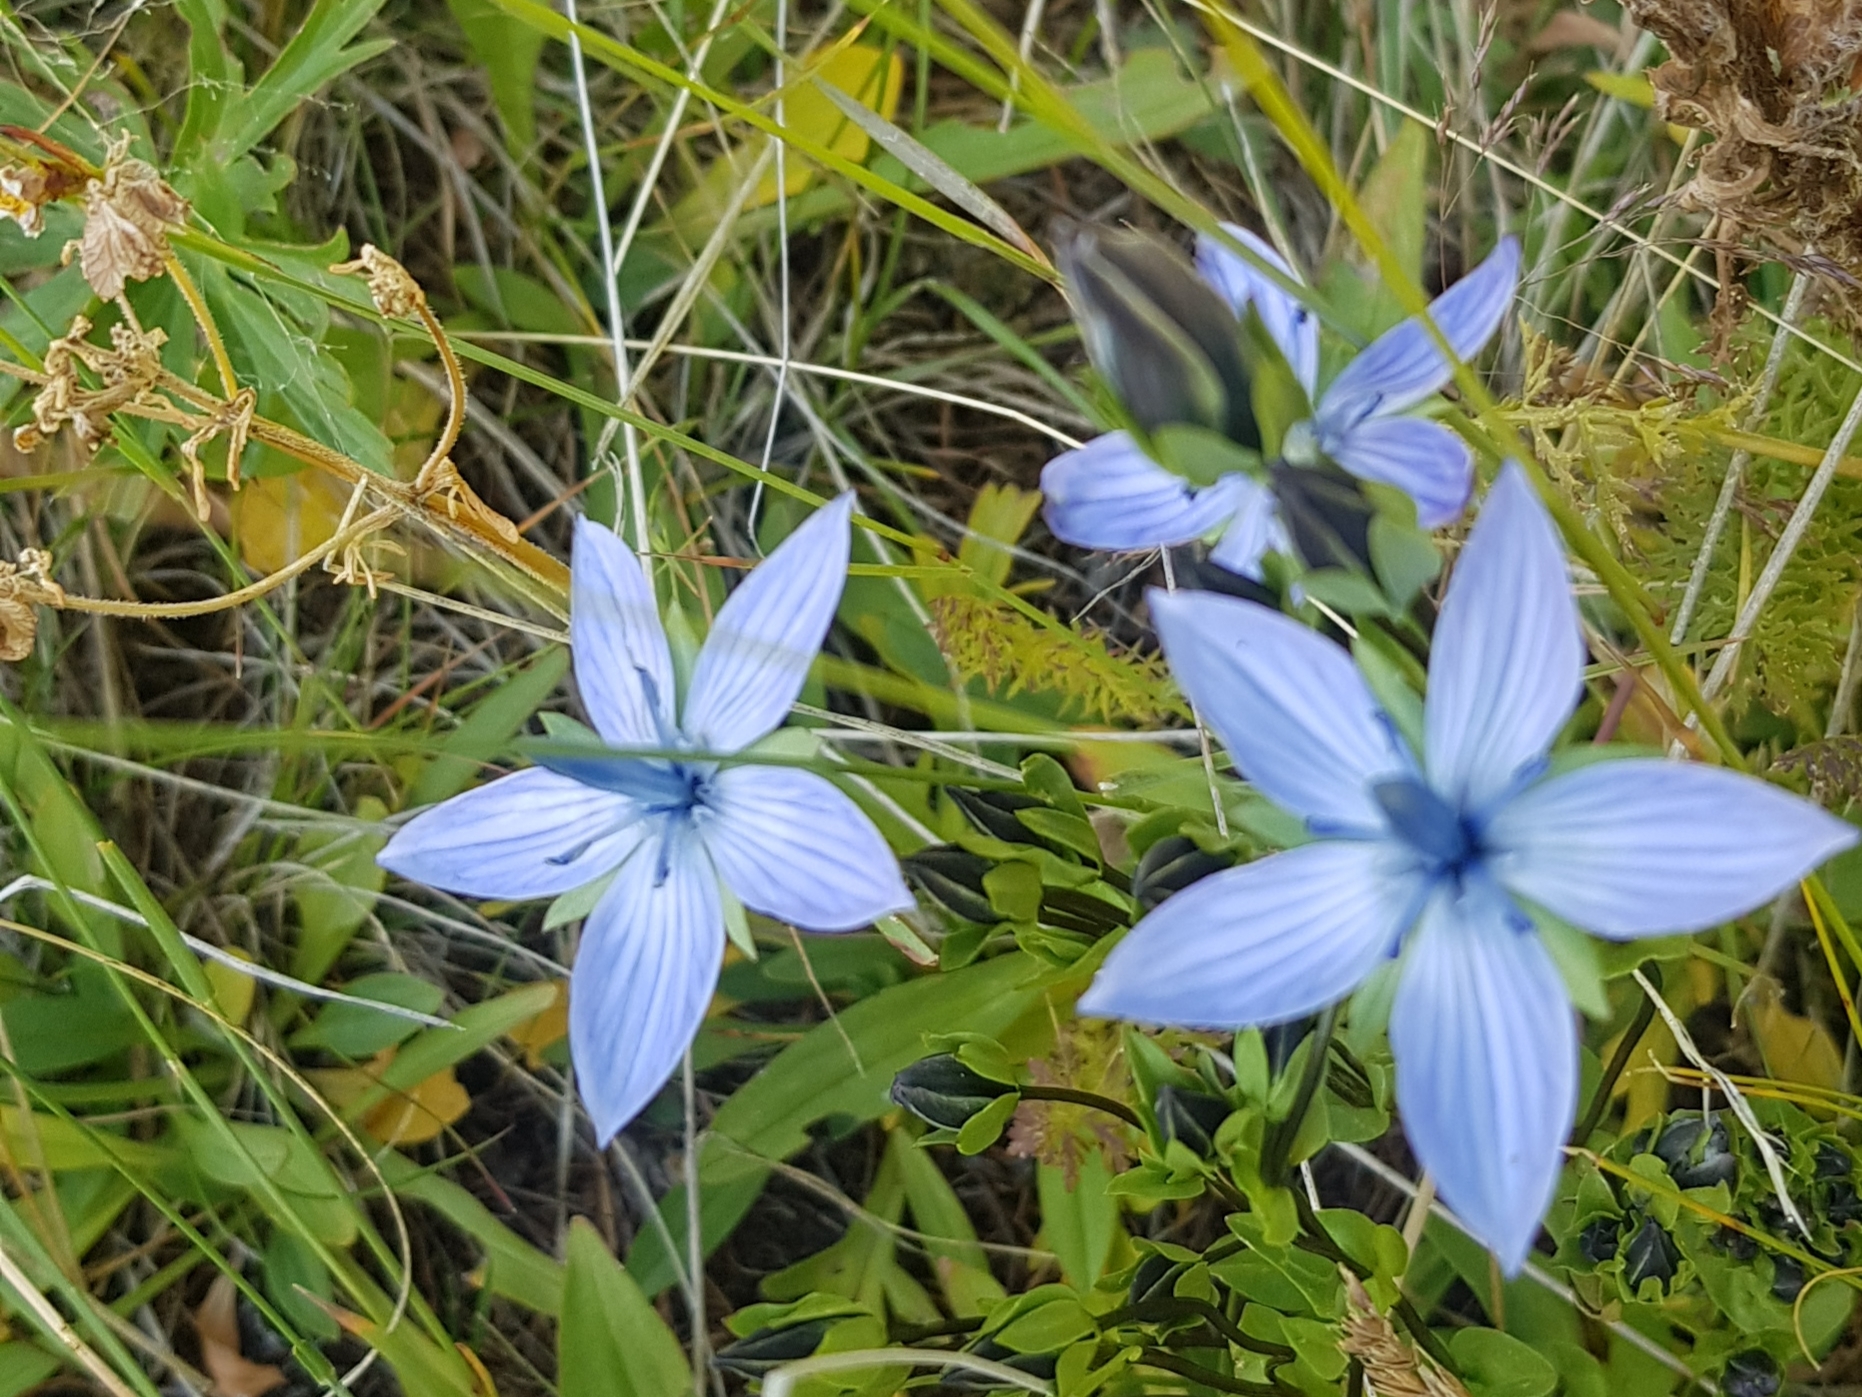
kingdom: Plantae
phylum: Tracheophyta
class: Magnoliopsida
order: Gentianales
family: Gentianaceae
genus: Lomatogonium
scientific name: Lomatogonium carinthiacum
